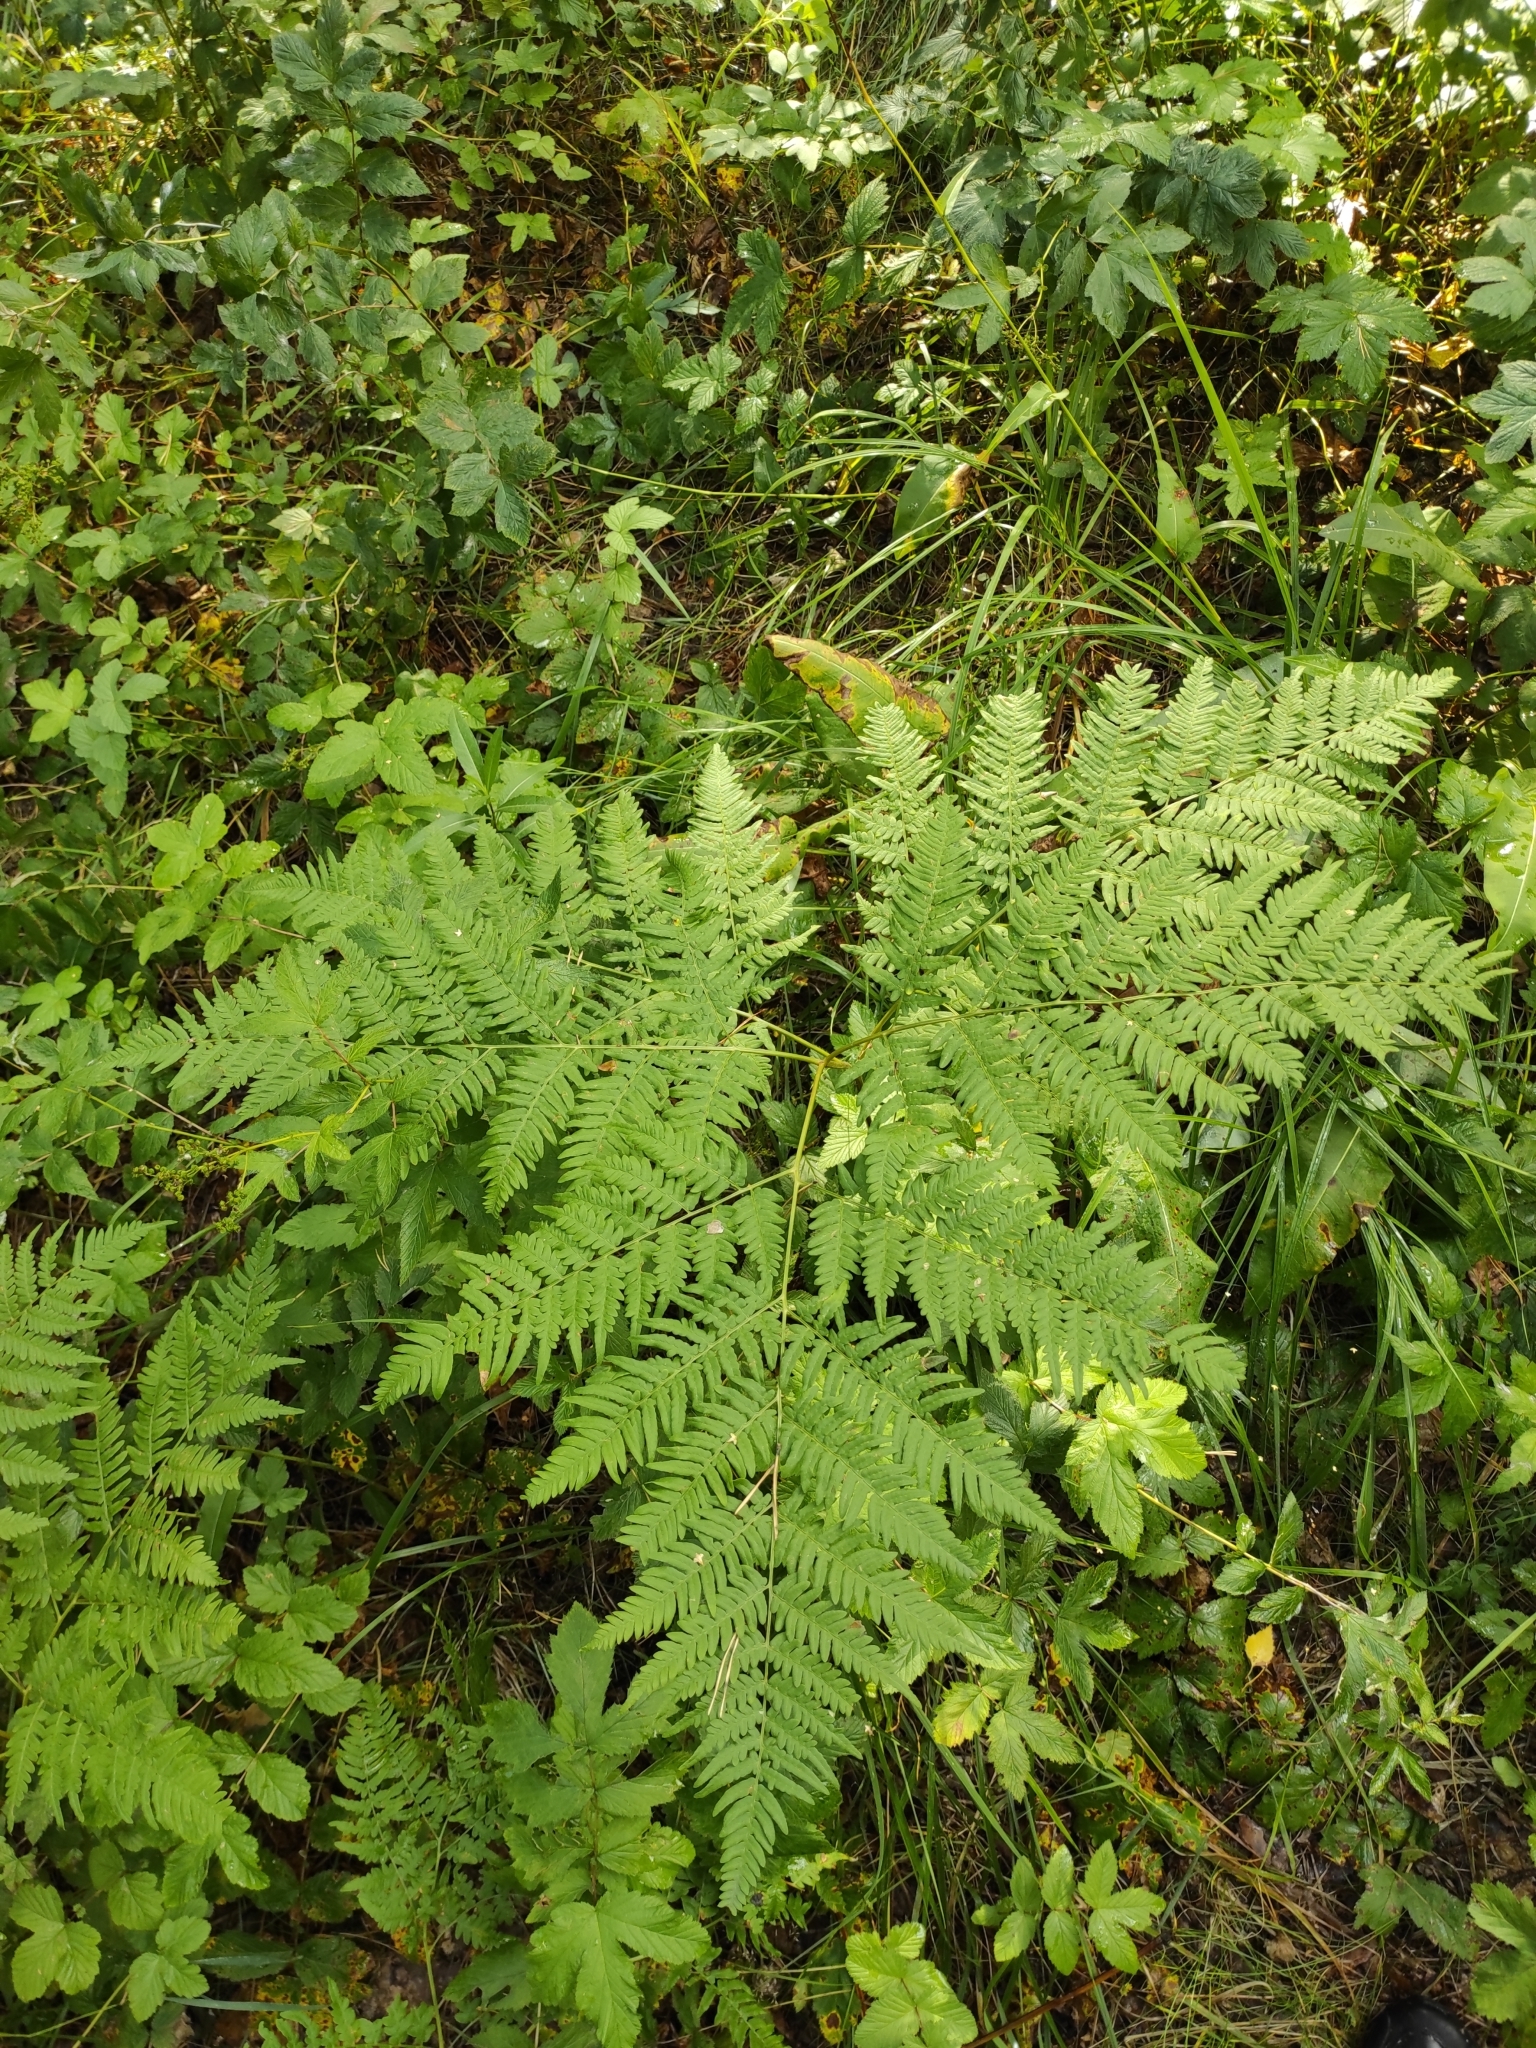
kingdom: Plantae
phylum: Tracheophyta
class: Polypodiopsida
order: Polypodiales
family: Dennstaedtiaceae
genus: Pteridium
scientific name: Pteridium aquilinum
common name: Bracken
